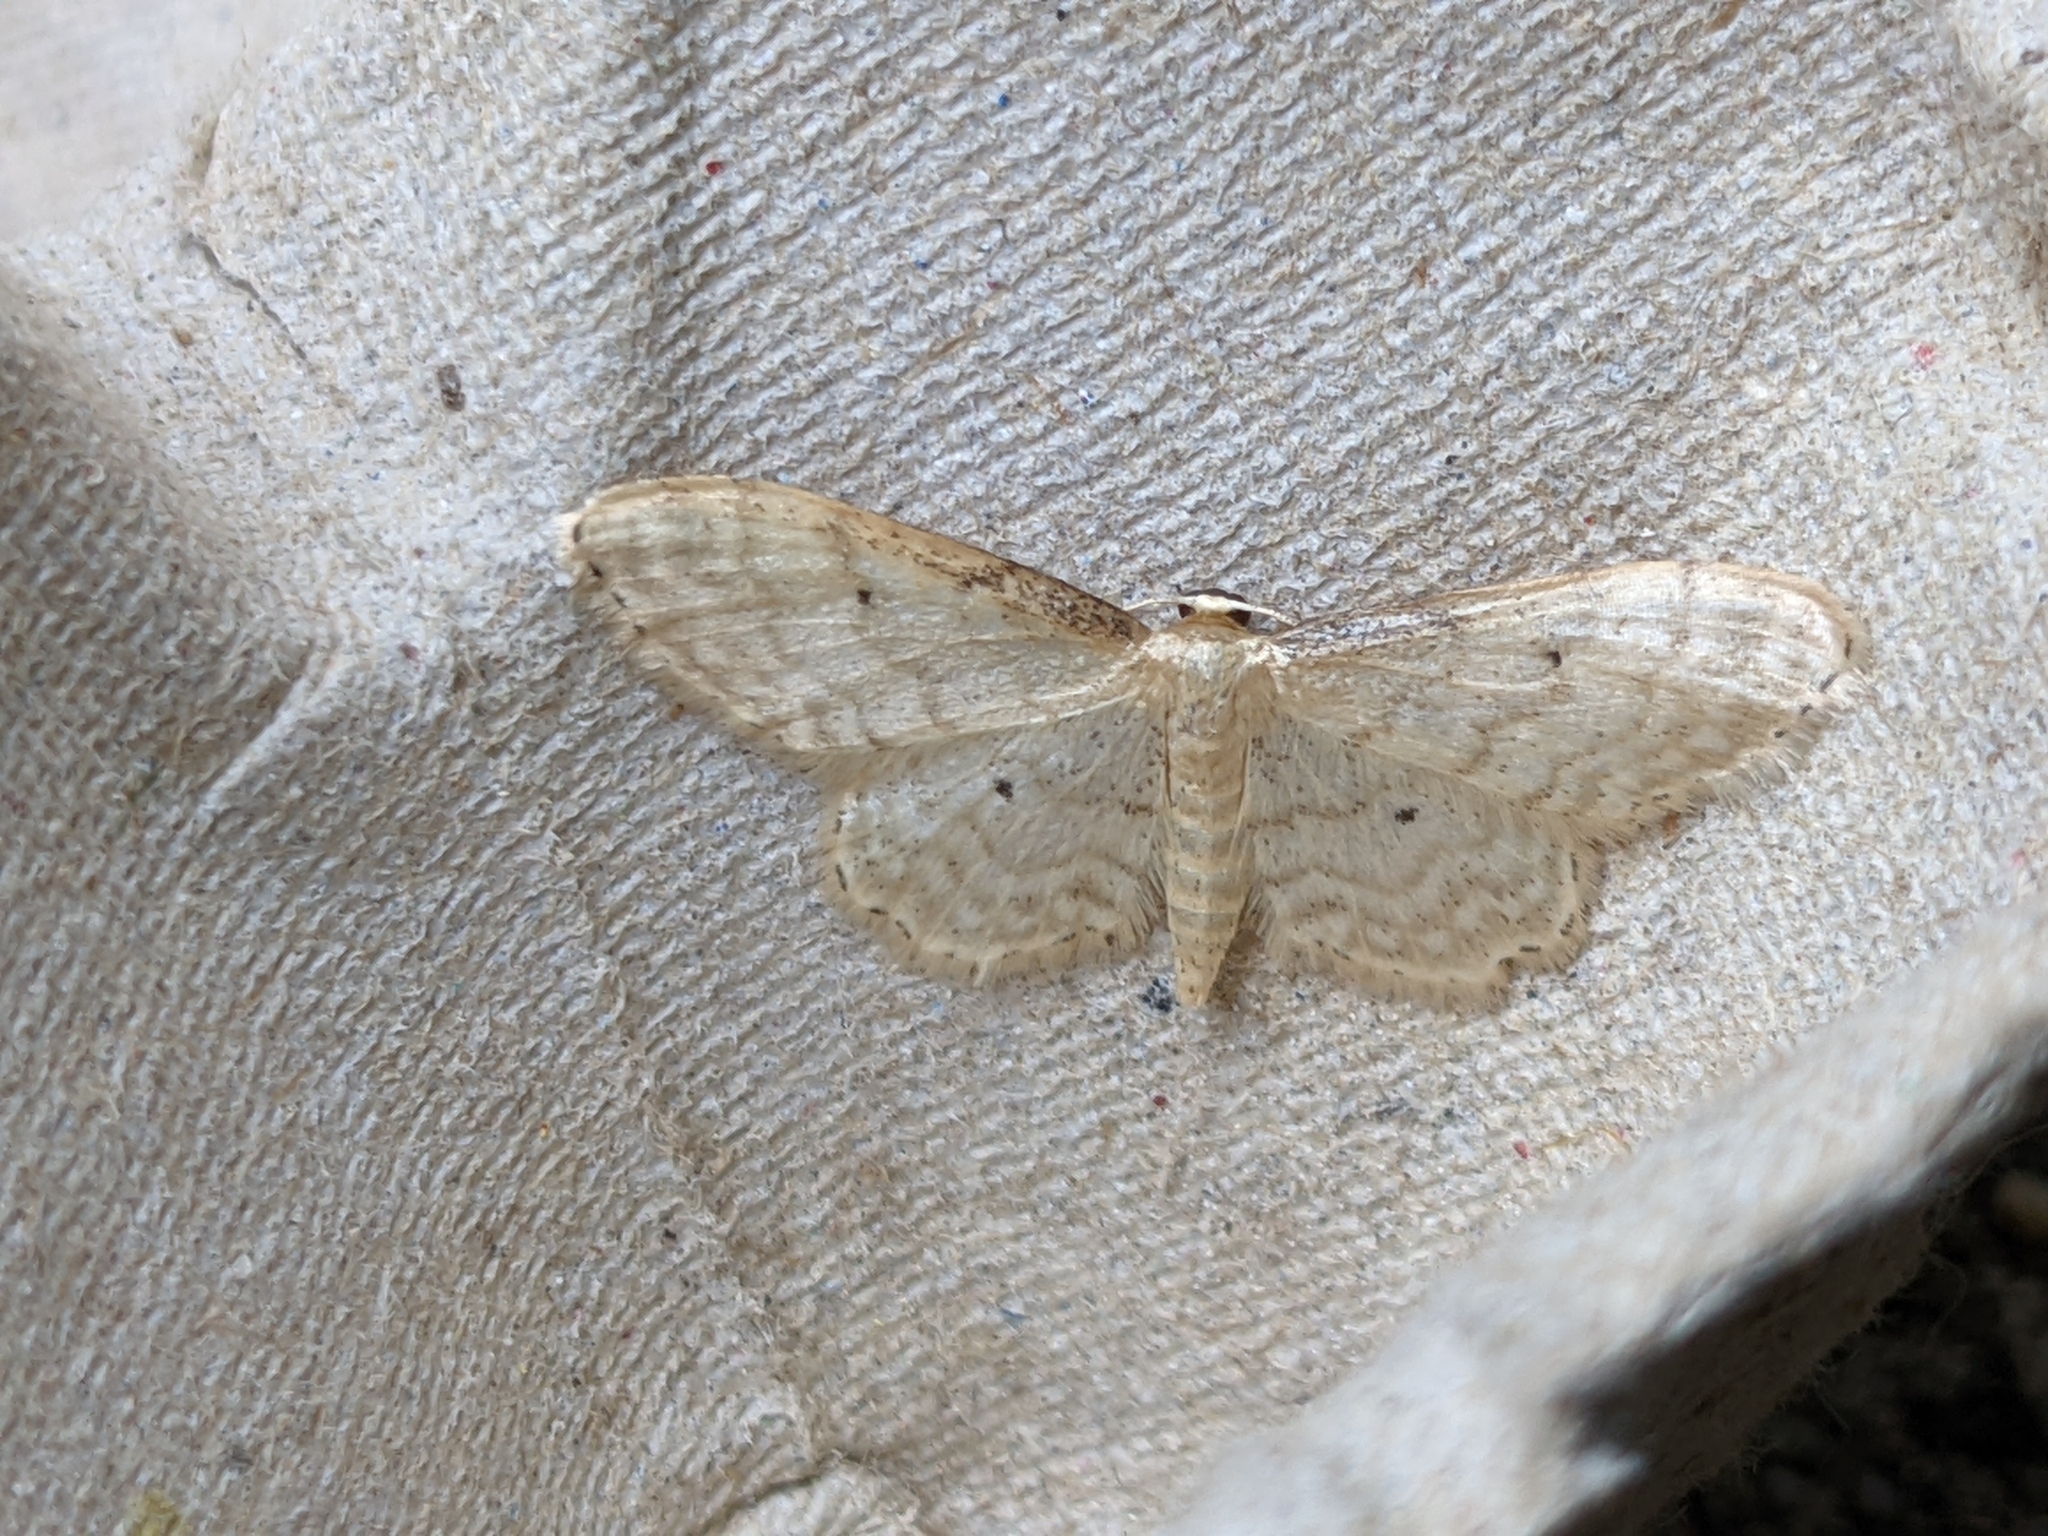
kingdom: Animalia
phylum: Arthropoda
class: Insecta
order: Lepidoptera
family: Geometridae
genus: Idaea
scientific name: Idaea fuscovenosa
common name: Dwarf cream wave
